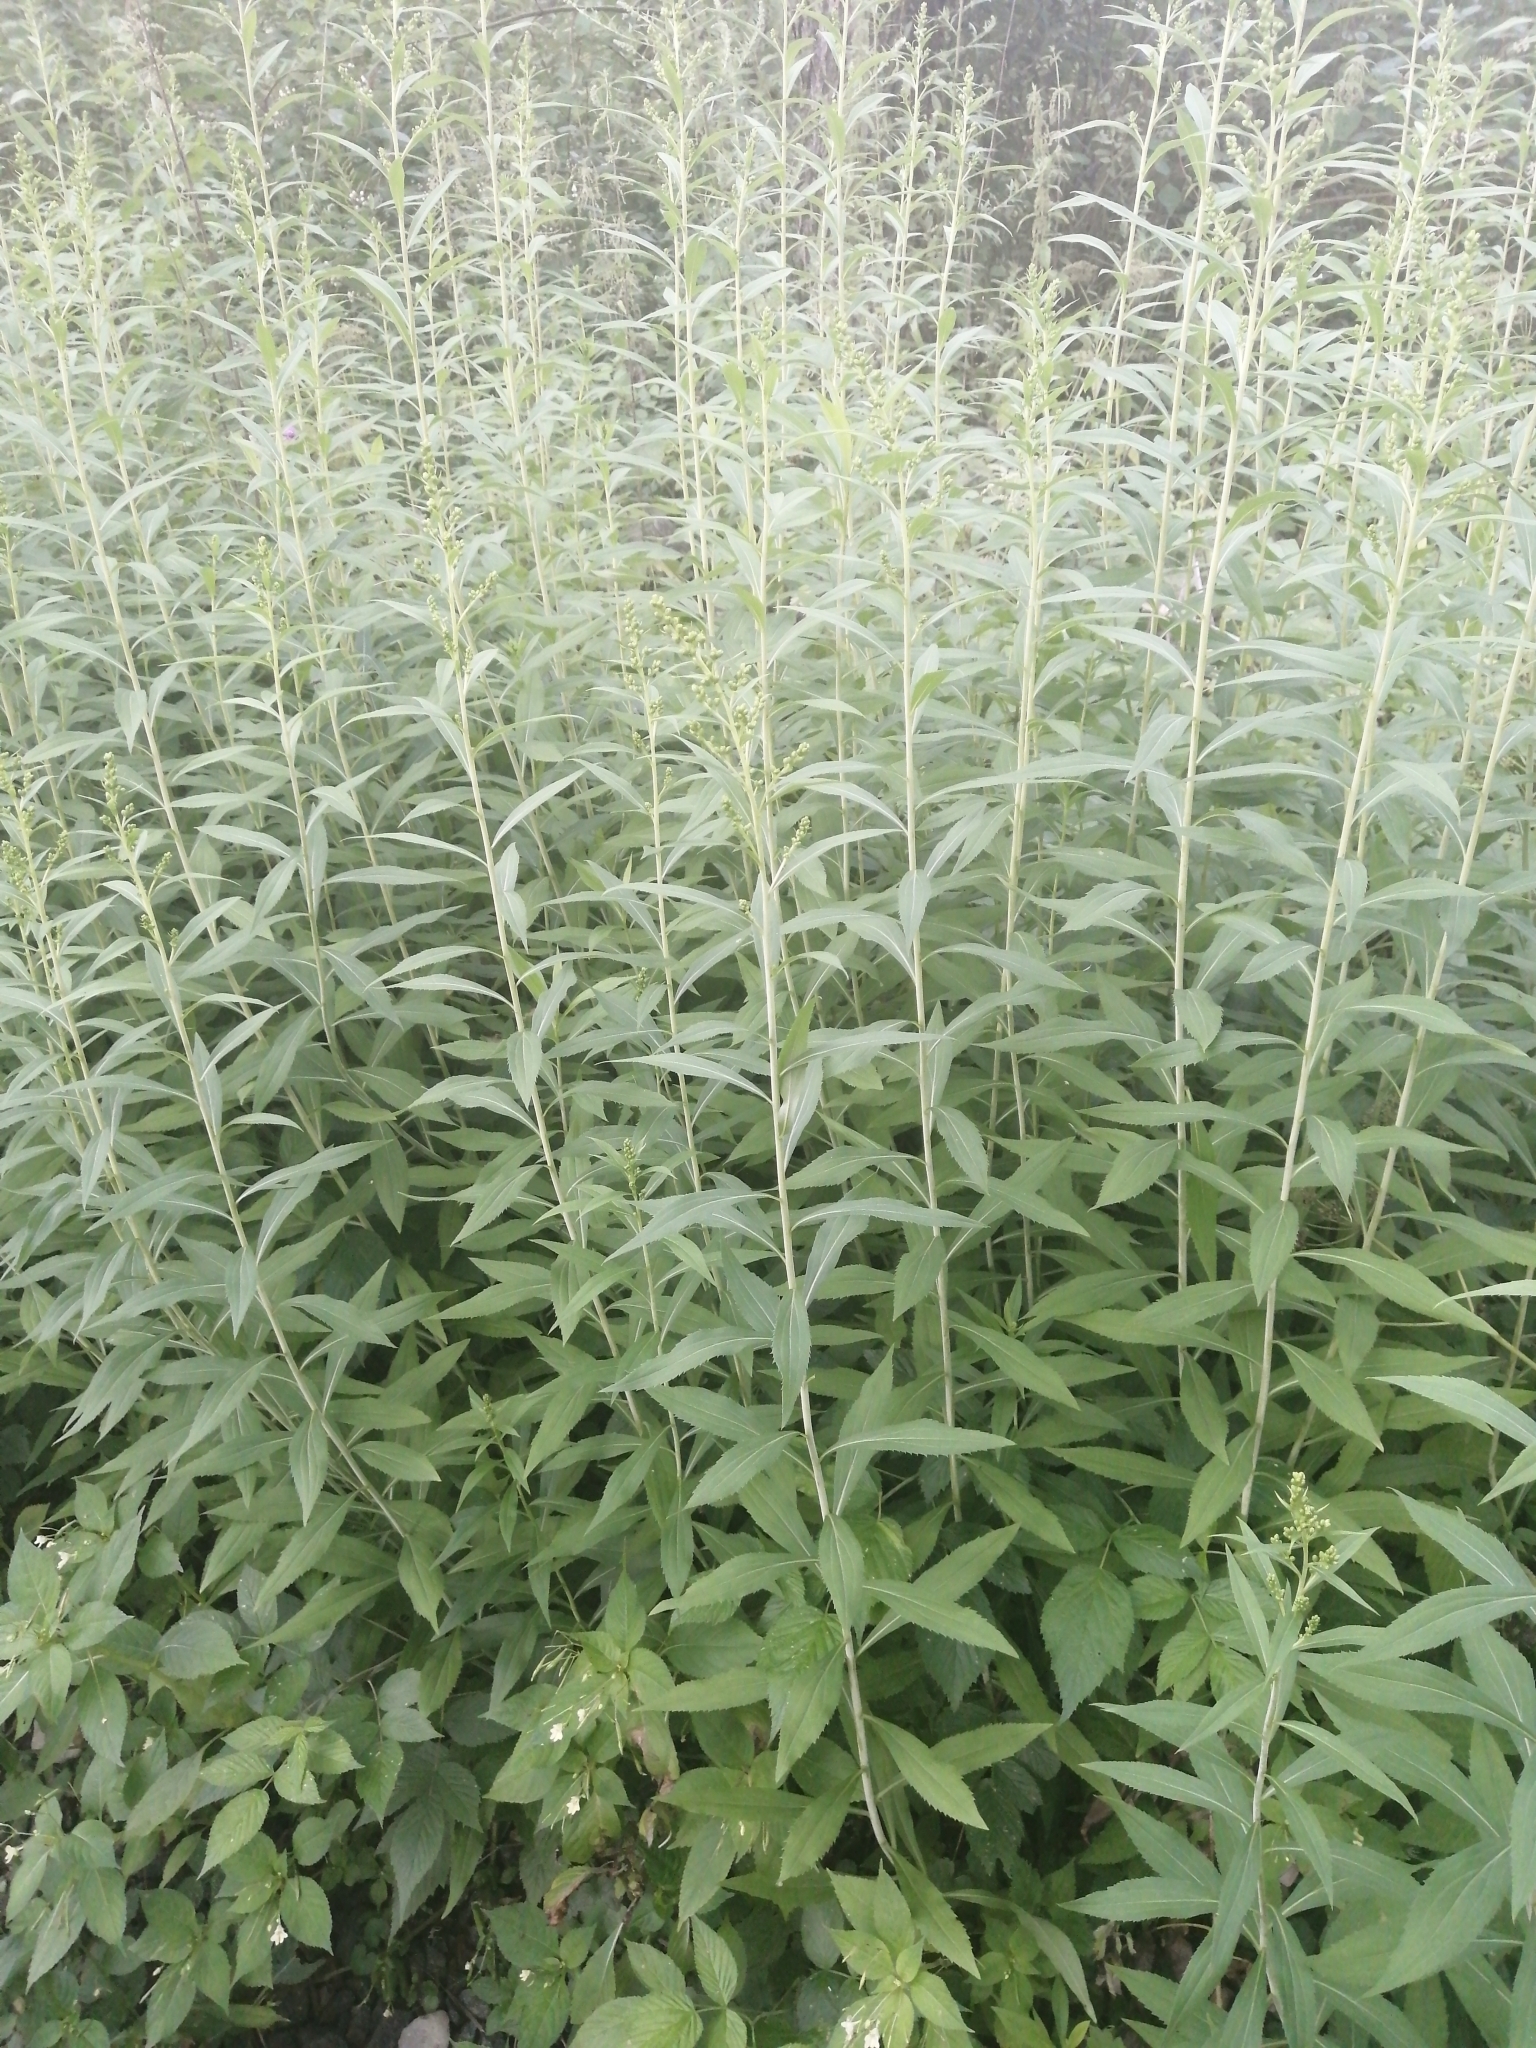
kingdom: Plantae
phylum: Tracheophyta
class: Magnoliopsida
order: Asterales
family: Asteraceae
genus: Solidago
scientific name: Solidago gigantea
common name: Giant goldenrod
